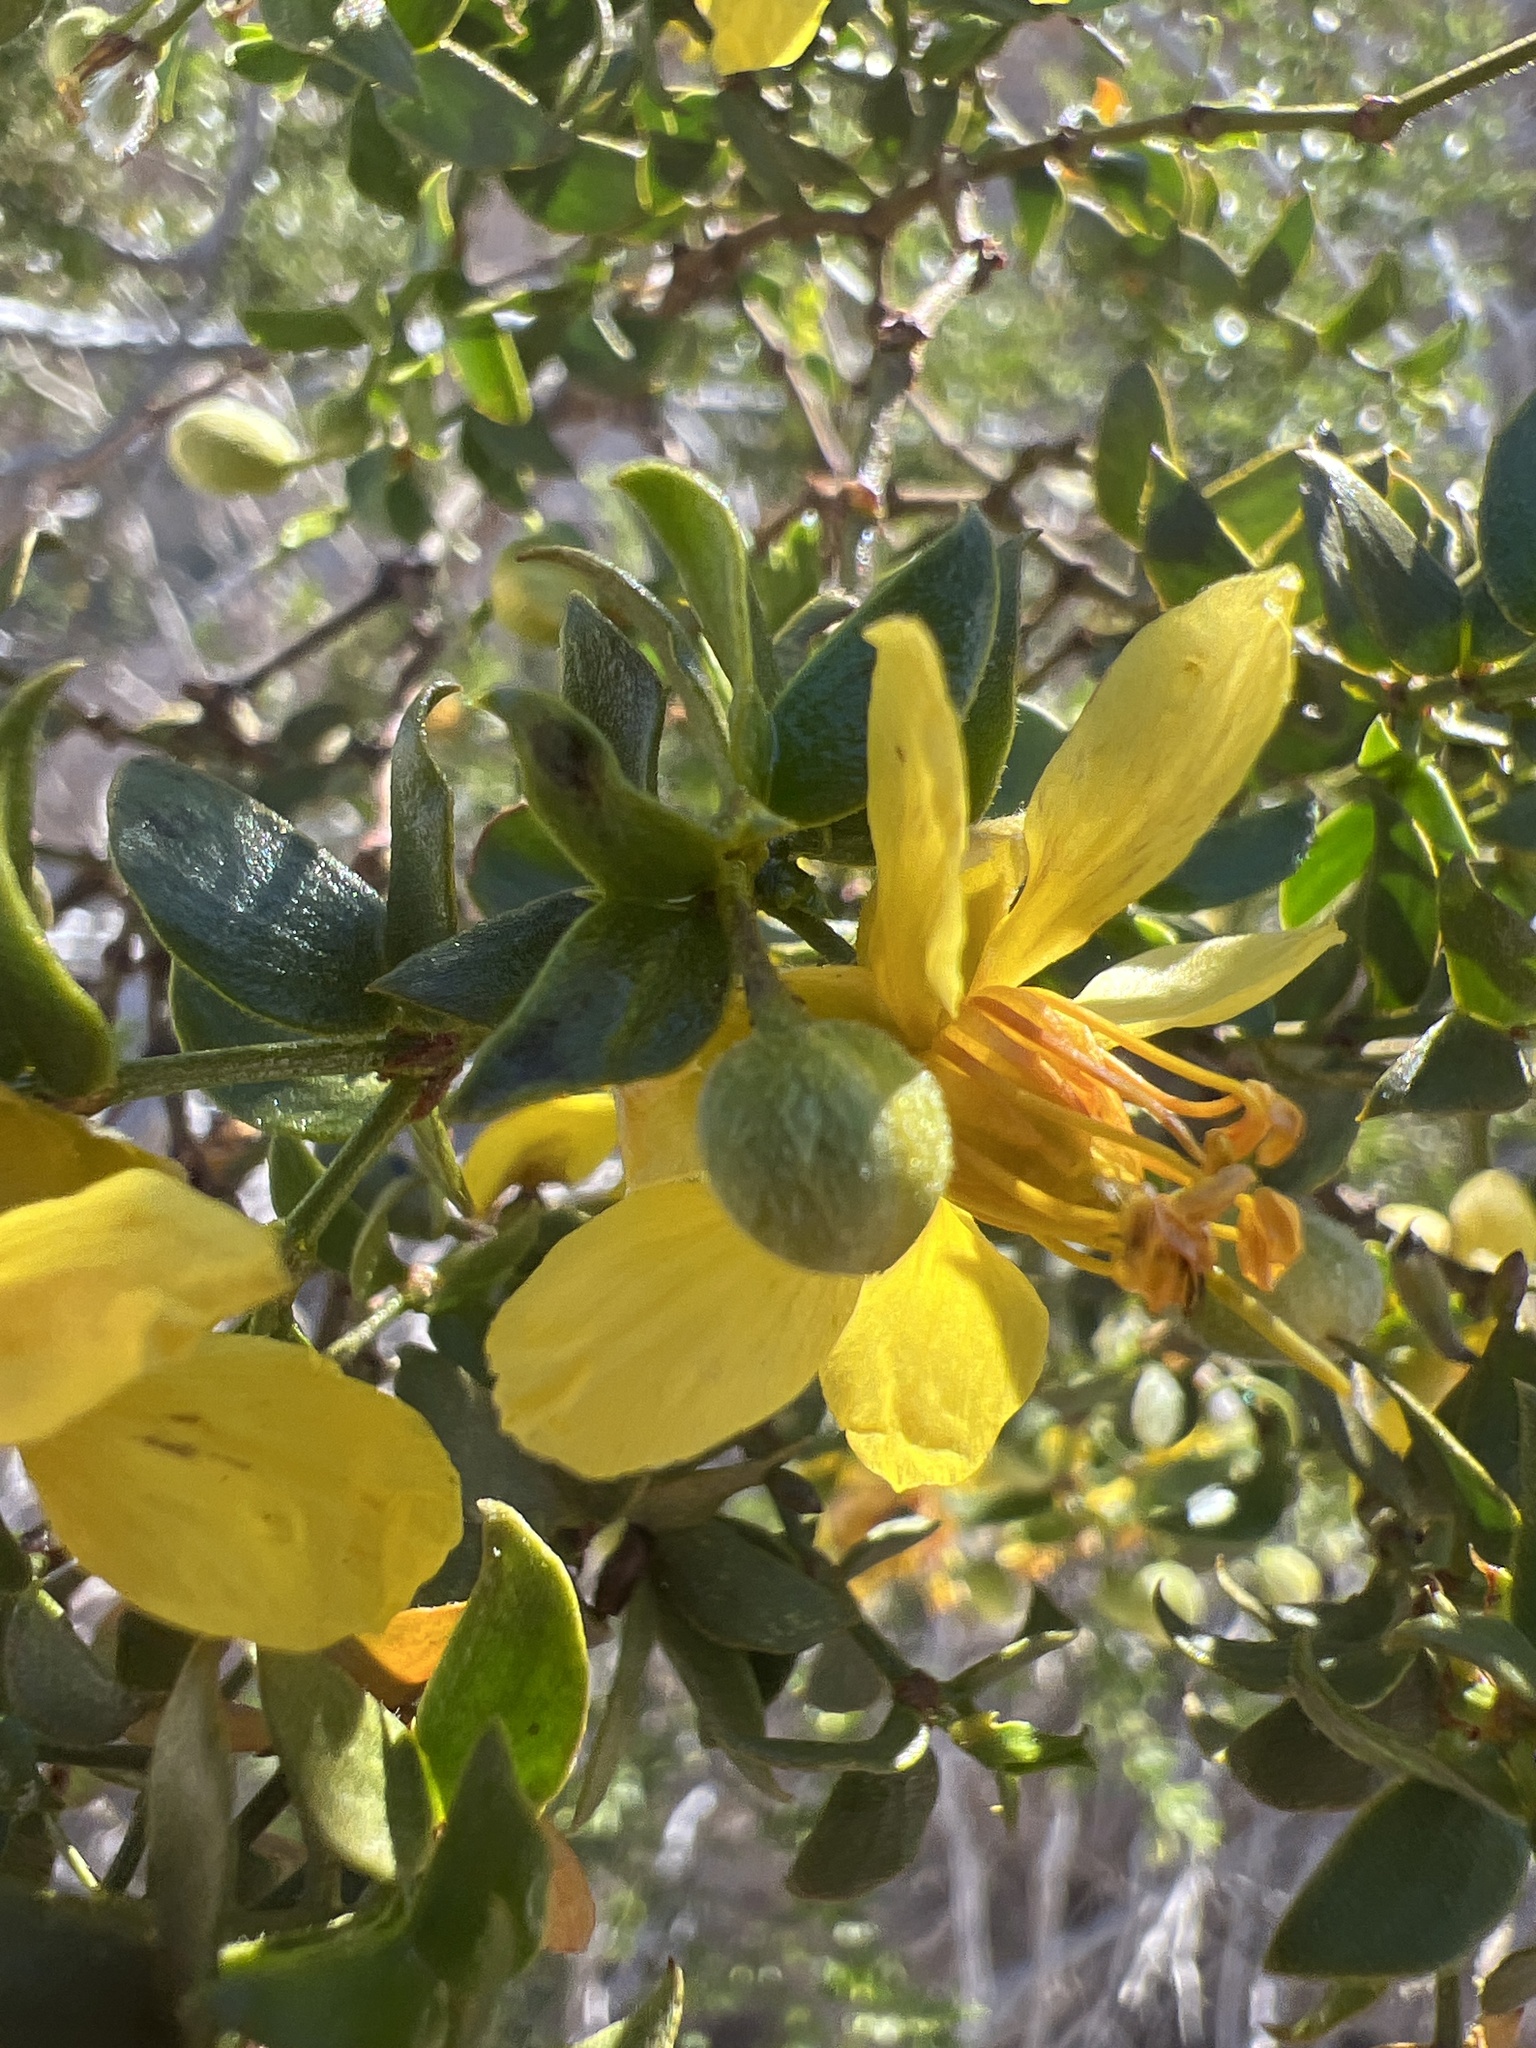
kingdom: Plantae
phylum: Tracheophyta
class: Magnoliopsida
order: Zygophyllales
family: Zygophyllaceae
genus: Larrea
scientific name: Larrea tridentata
